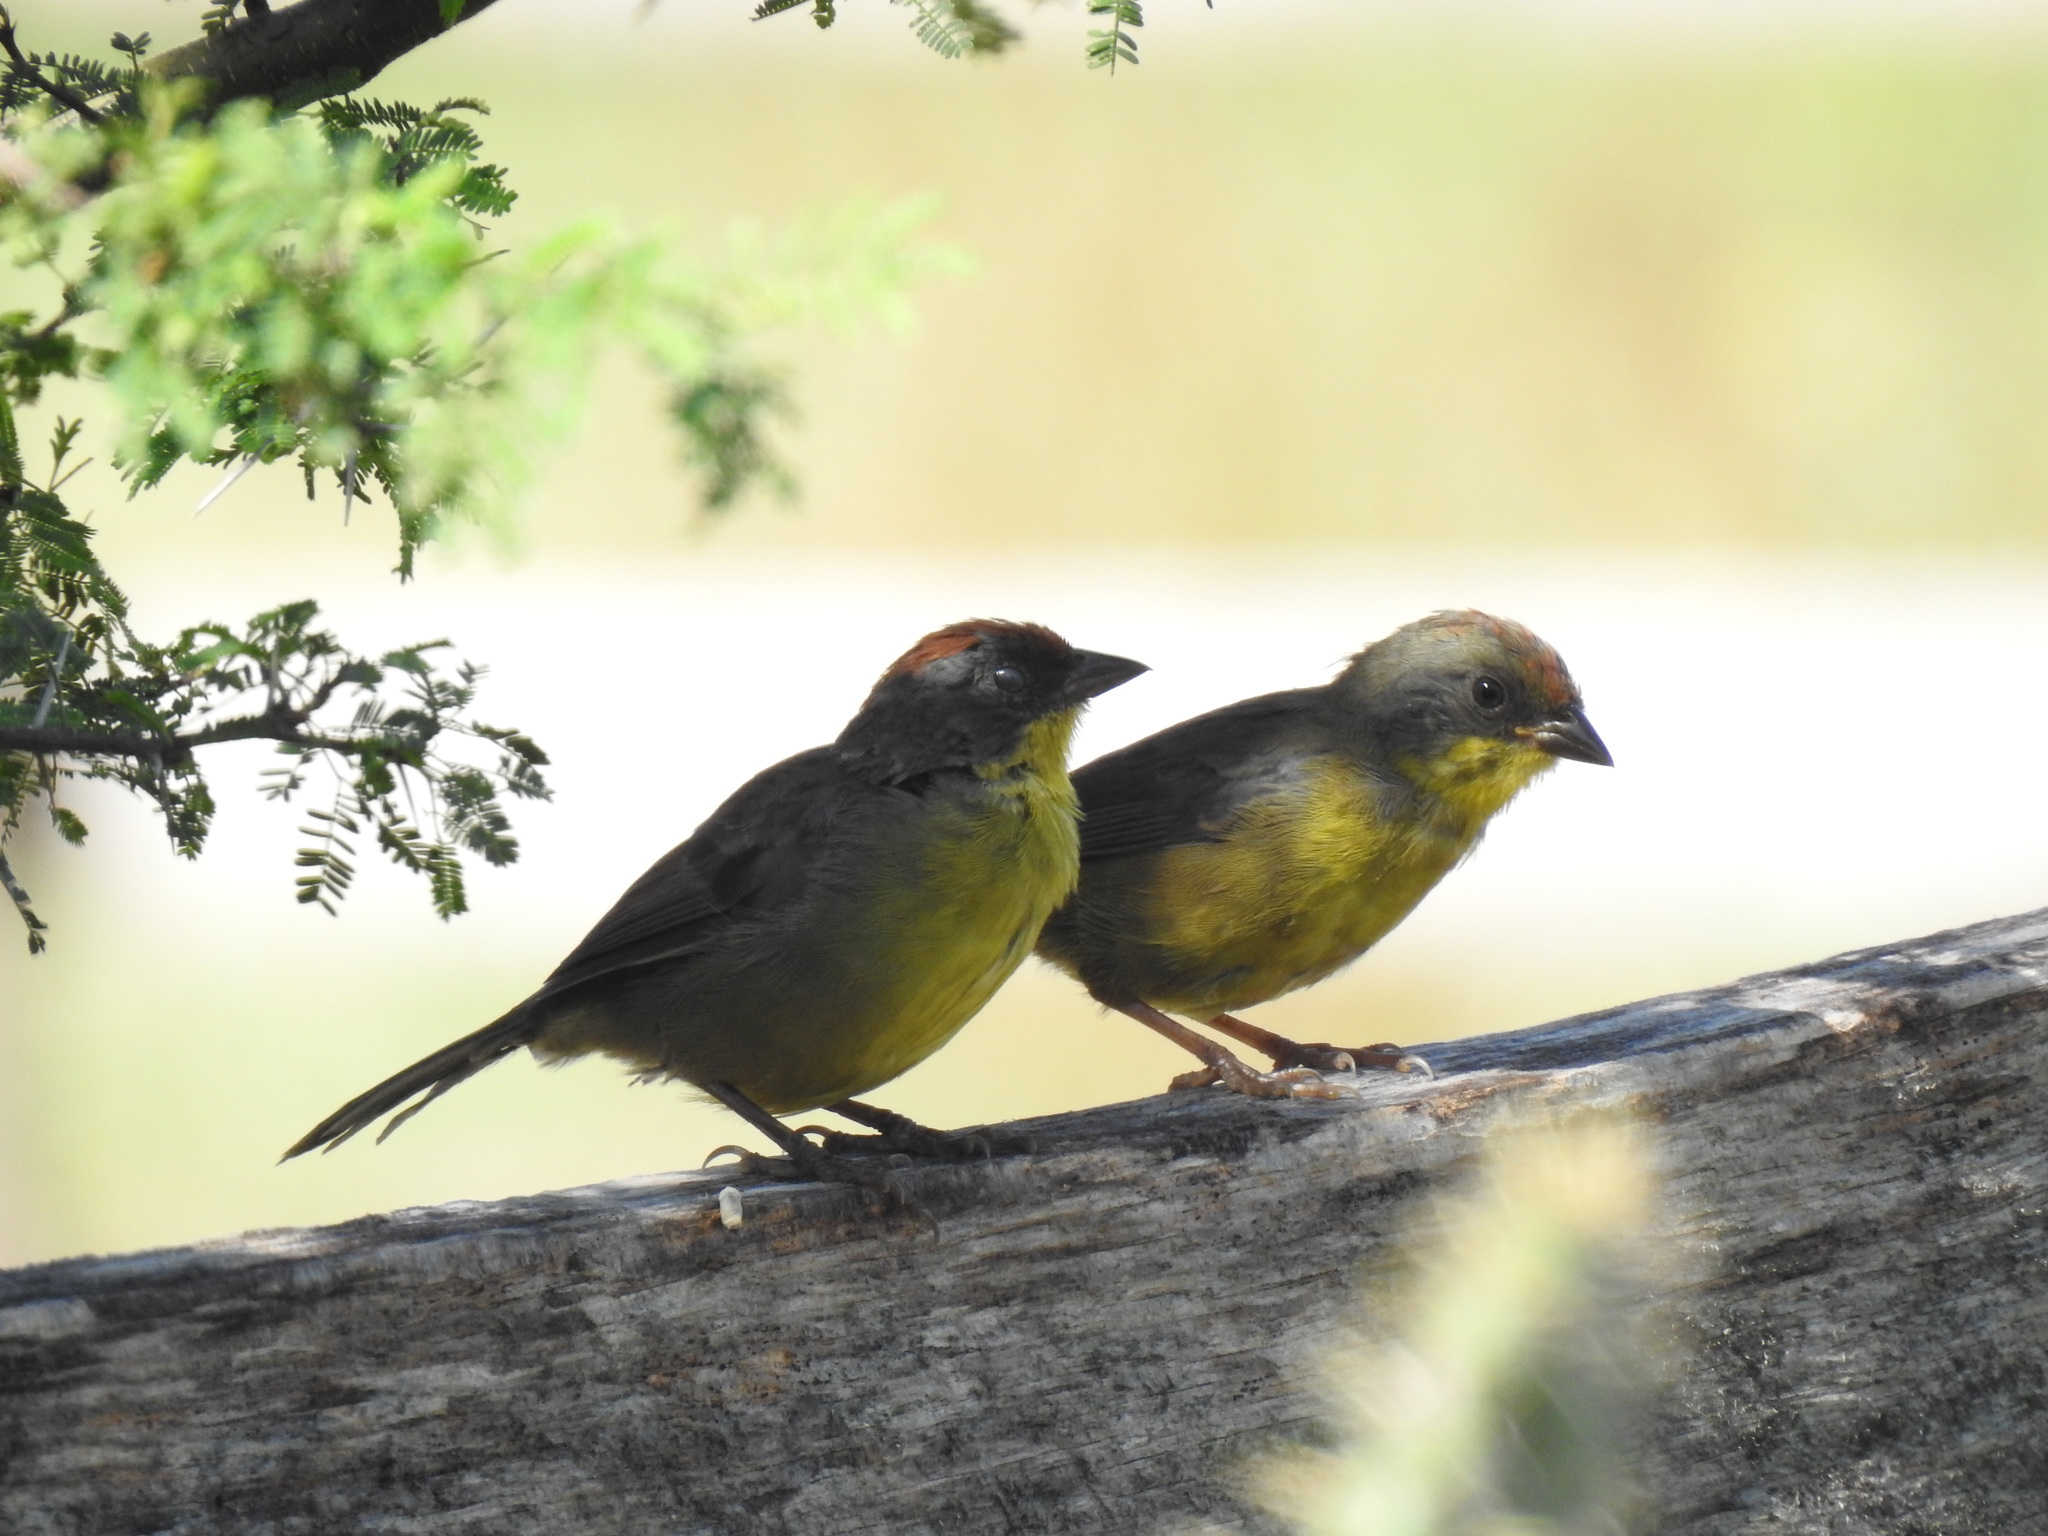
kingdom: Animalia
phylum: Chordata
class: Aves
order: Passeriformes
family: Passerellidae
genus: Atlapetes
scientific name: Atlapetes pileatus
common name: Rufous-capped brush-finch
